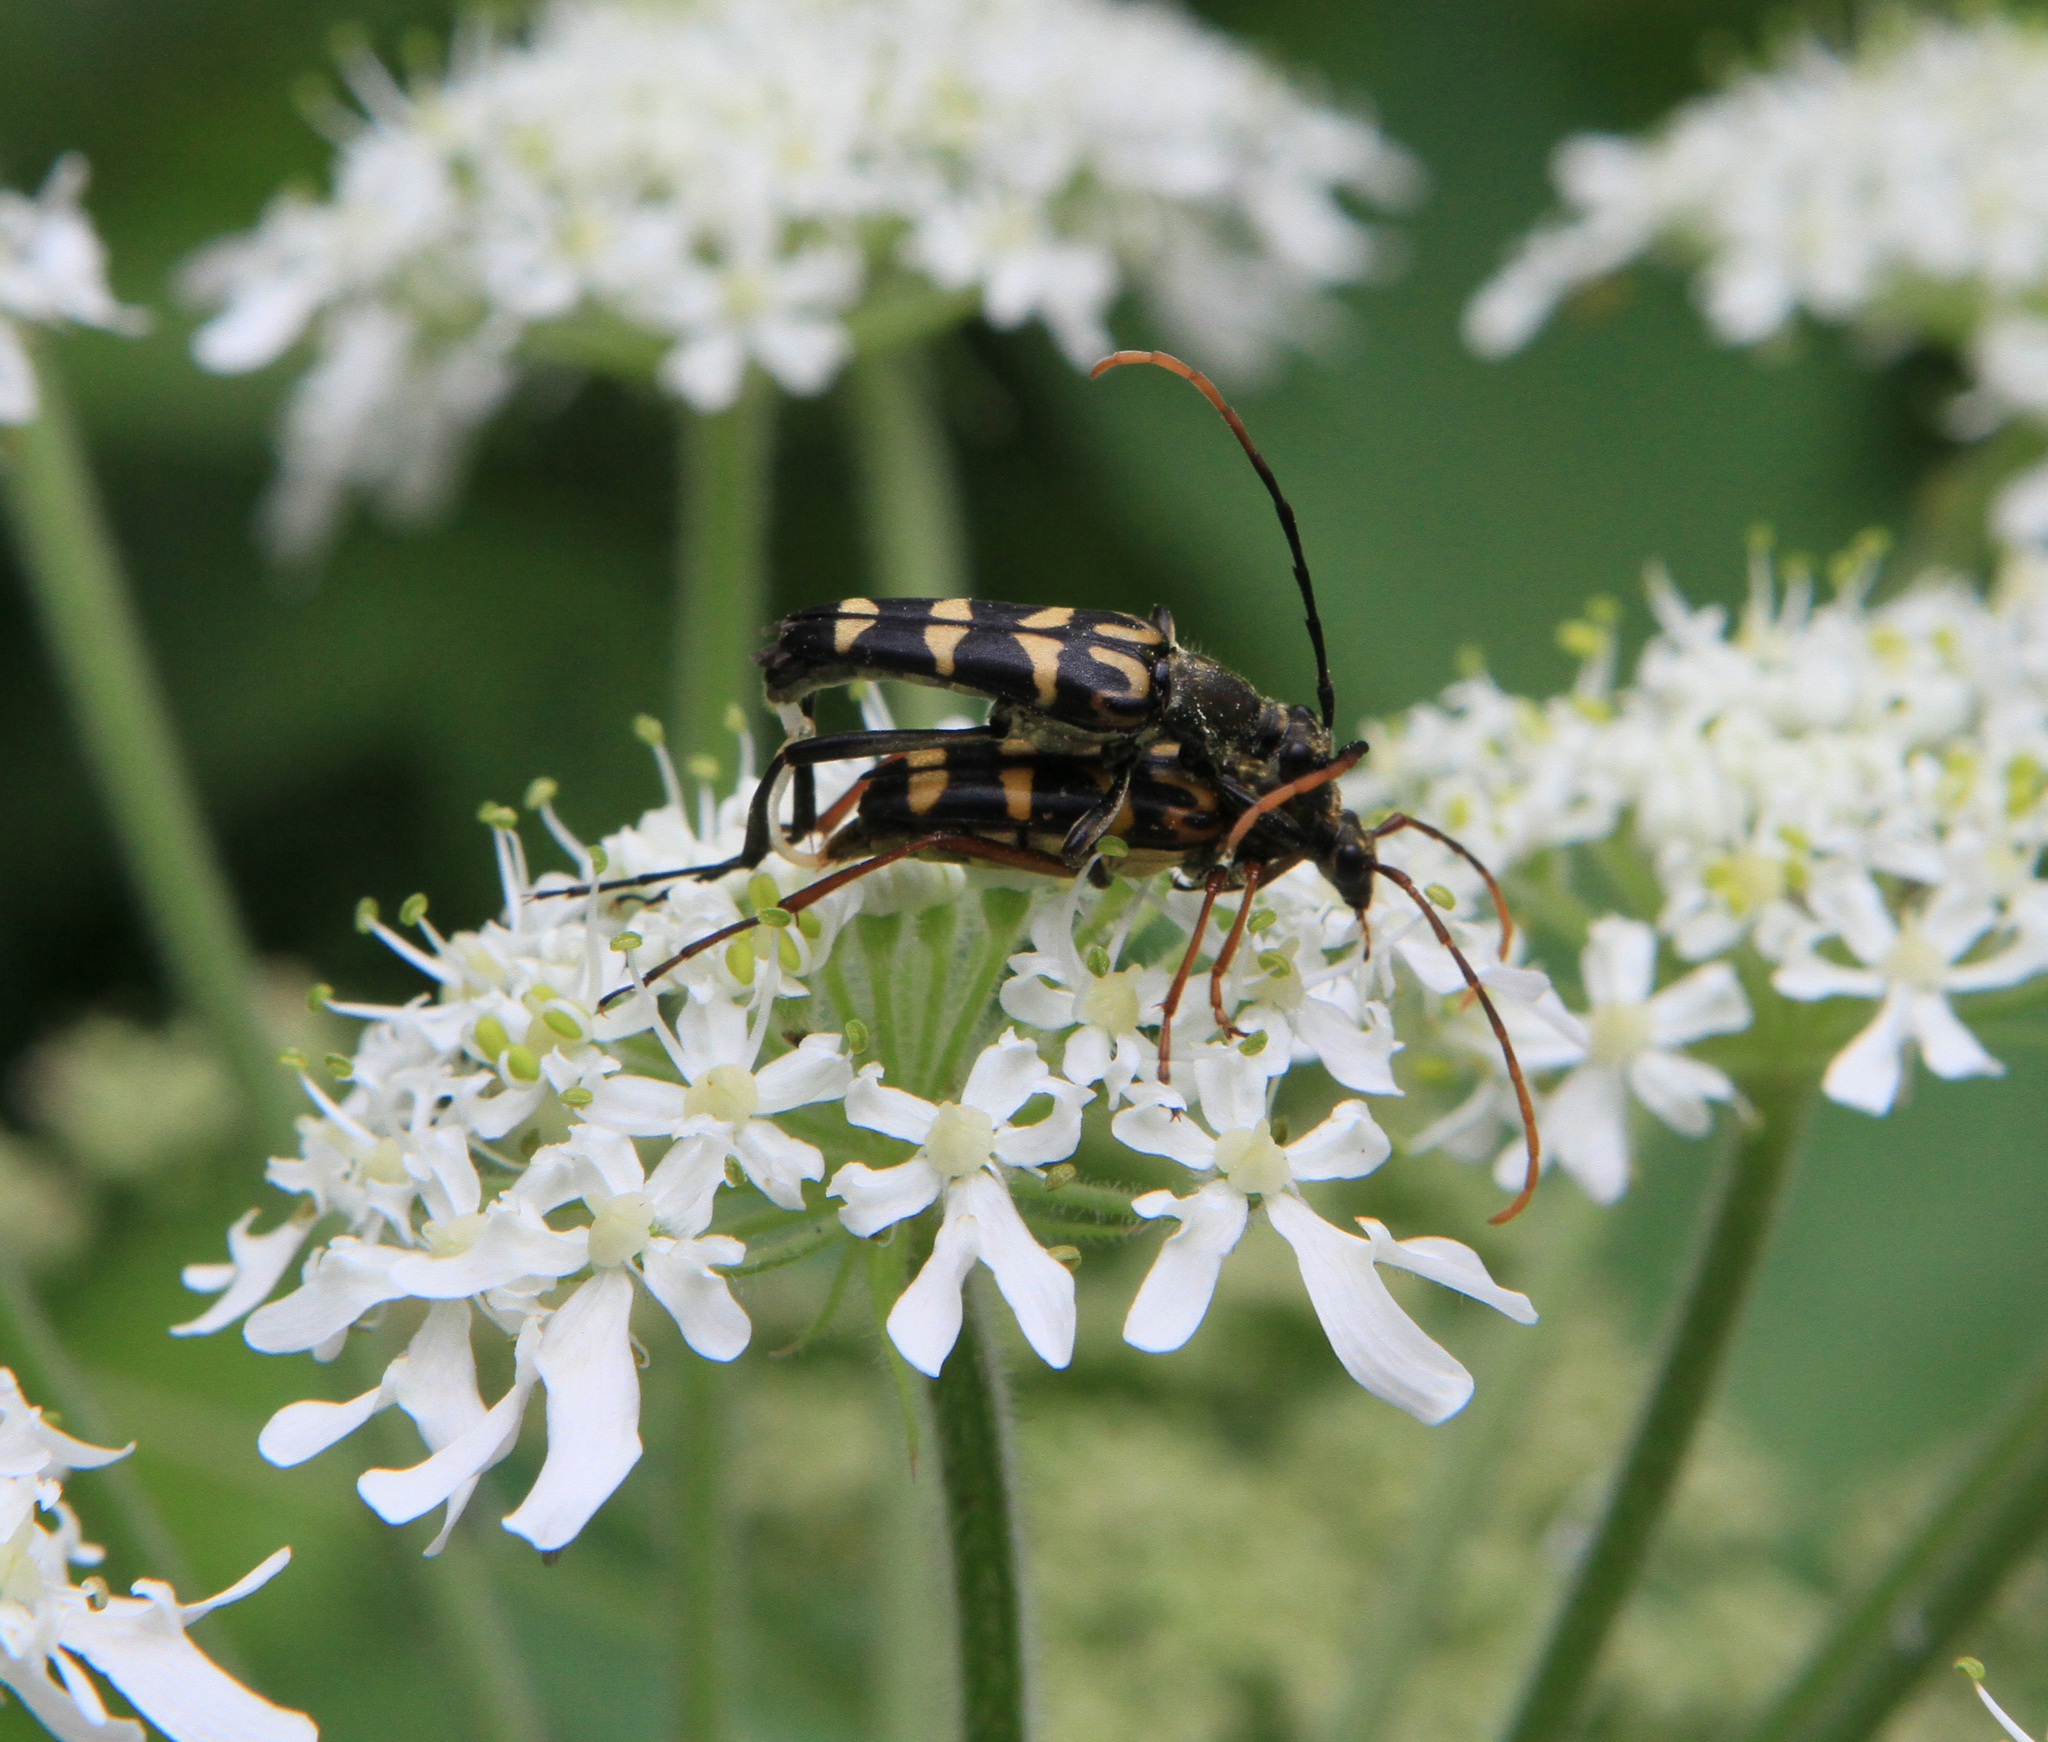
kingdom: Animalia
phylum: Arthropoda
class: Insecta
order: Coleoptera
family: Cerambycidae
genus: Leptura
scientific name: Leptura annularis
